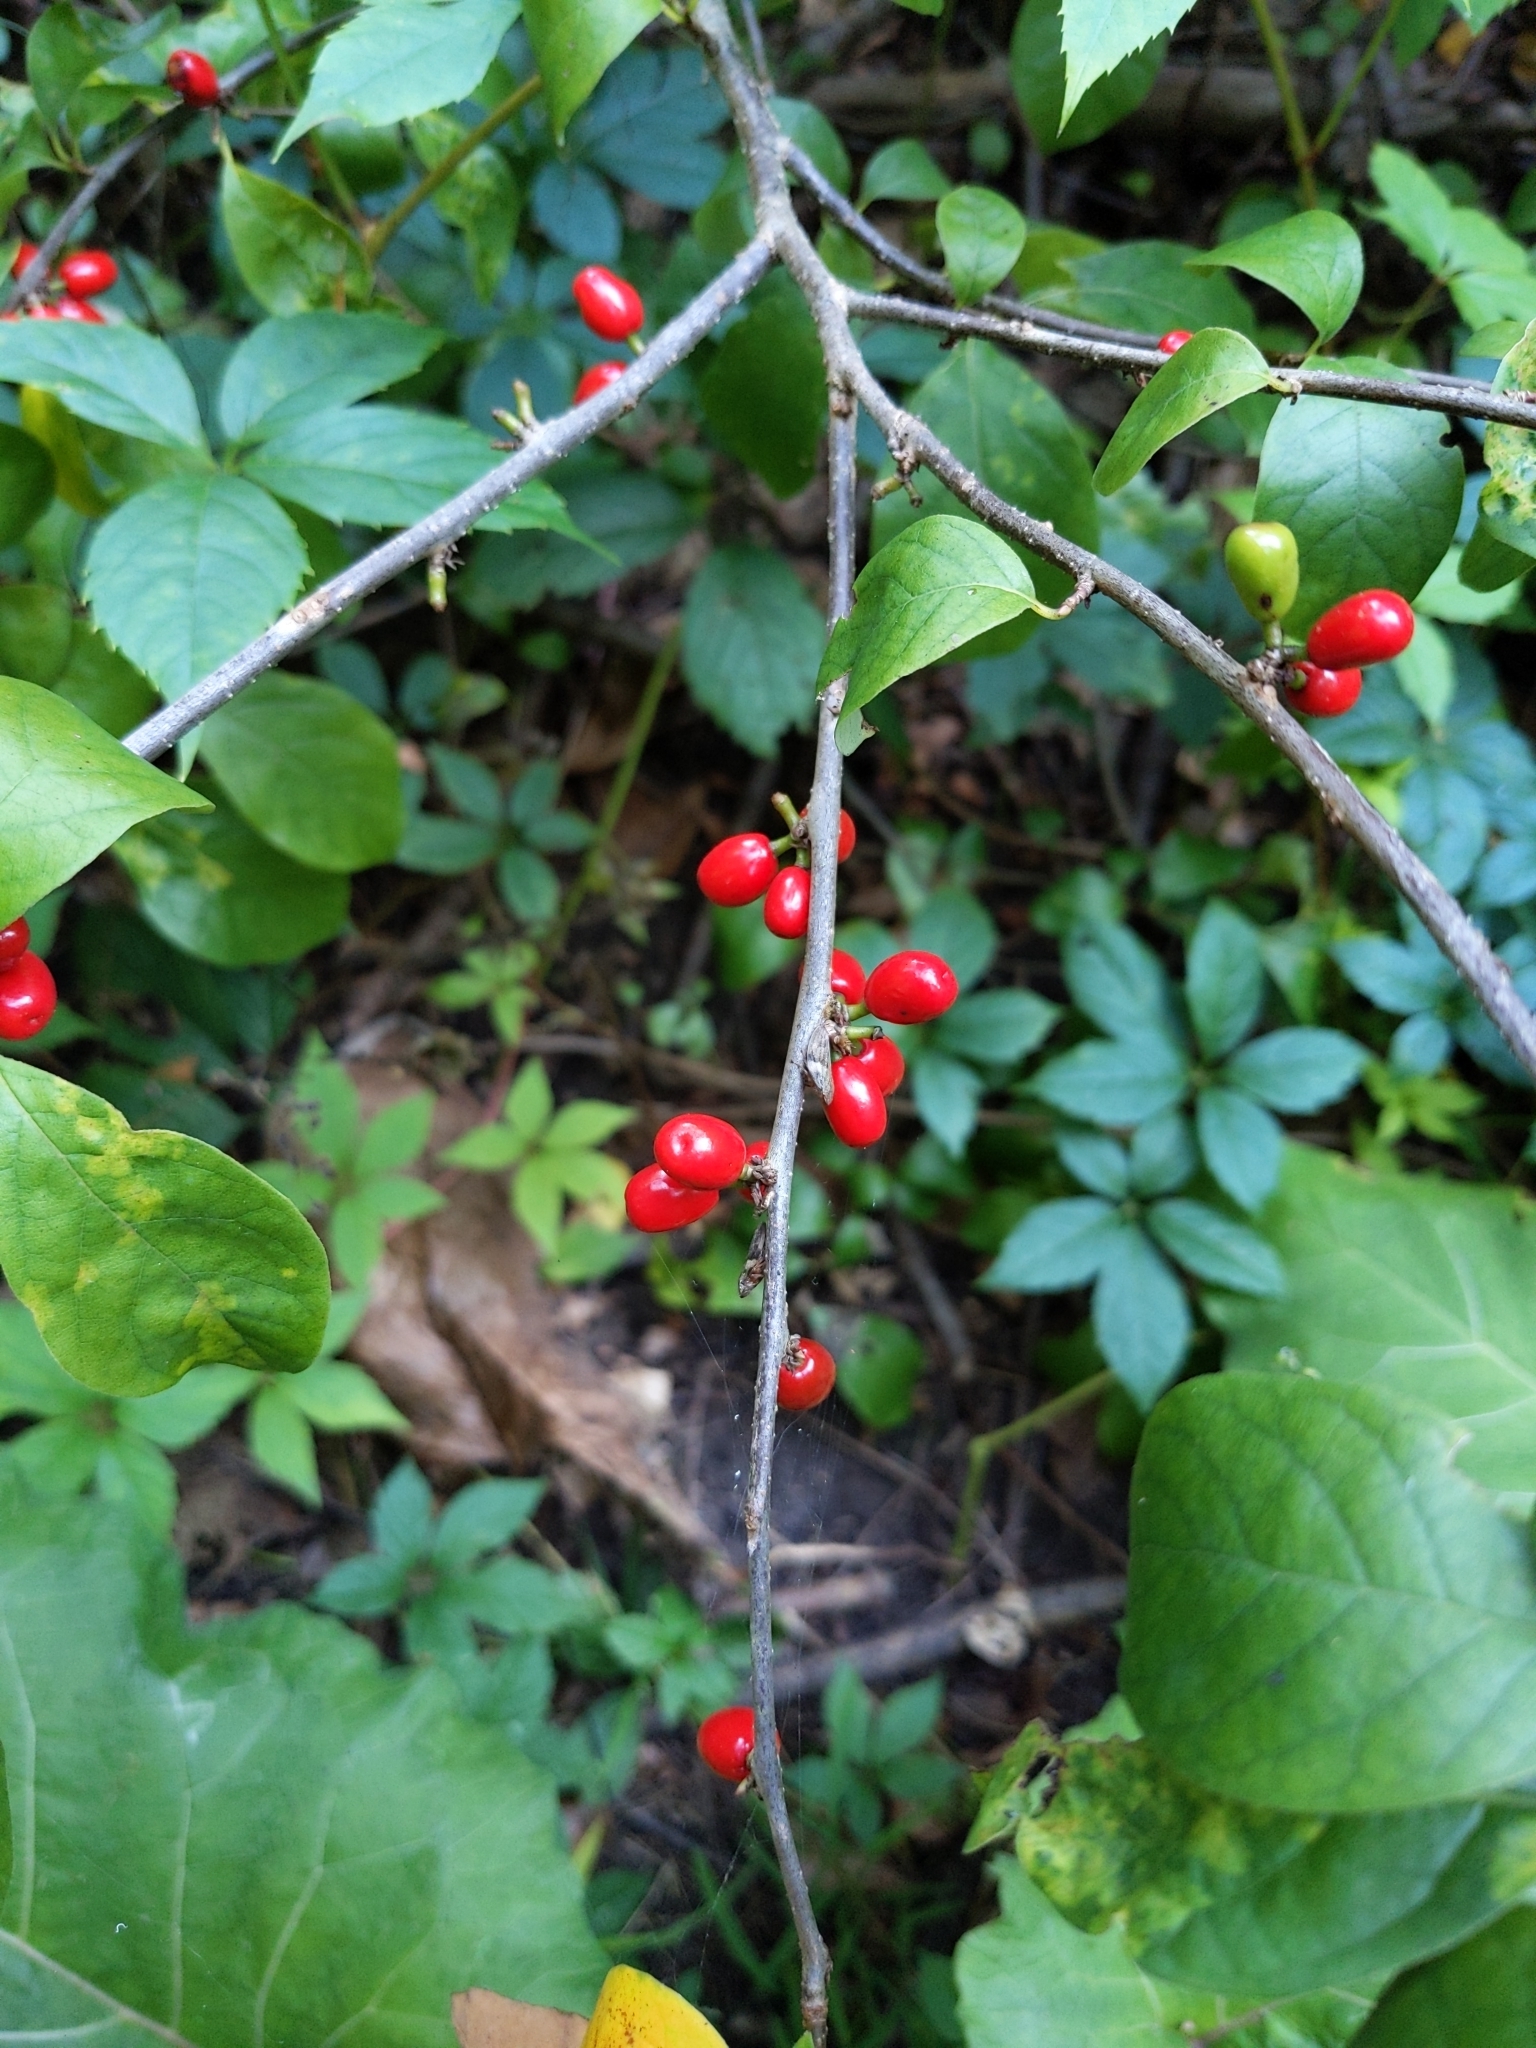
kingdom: Plantae
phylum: Tracheophyta
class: Magnoliopsida
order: Laurales
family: Lauraceae
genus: Lindera
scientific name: Lindera benzoin
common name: Spicebush
